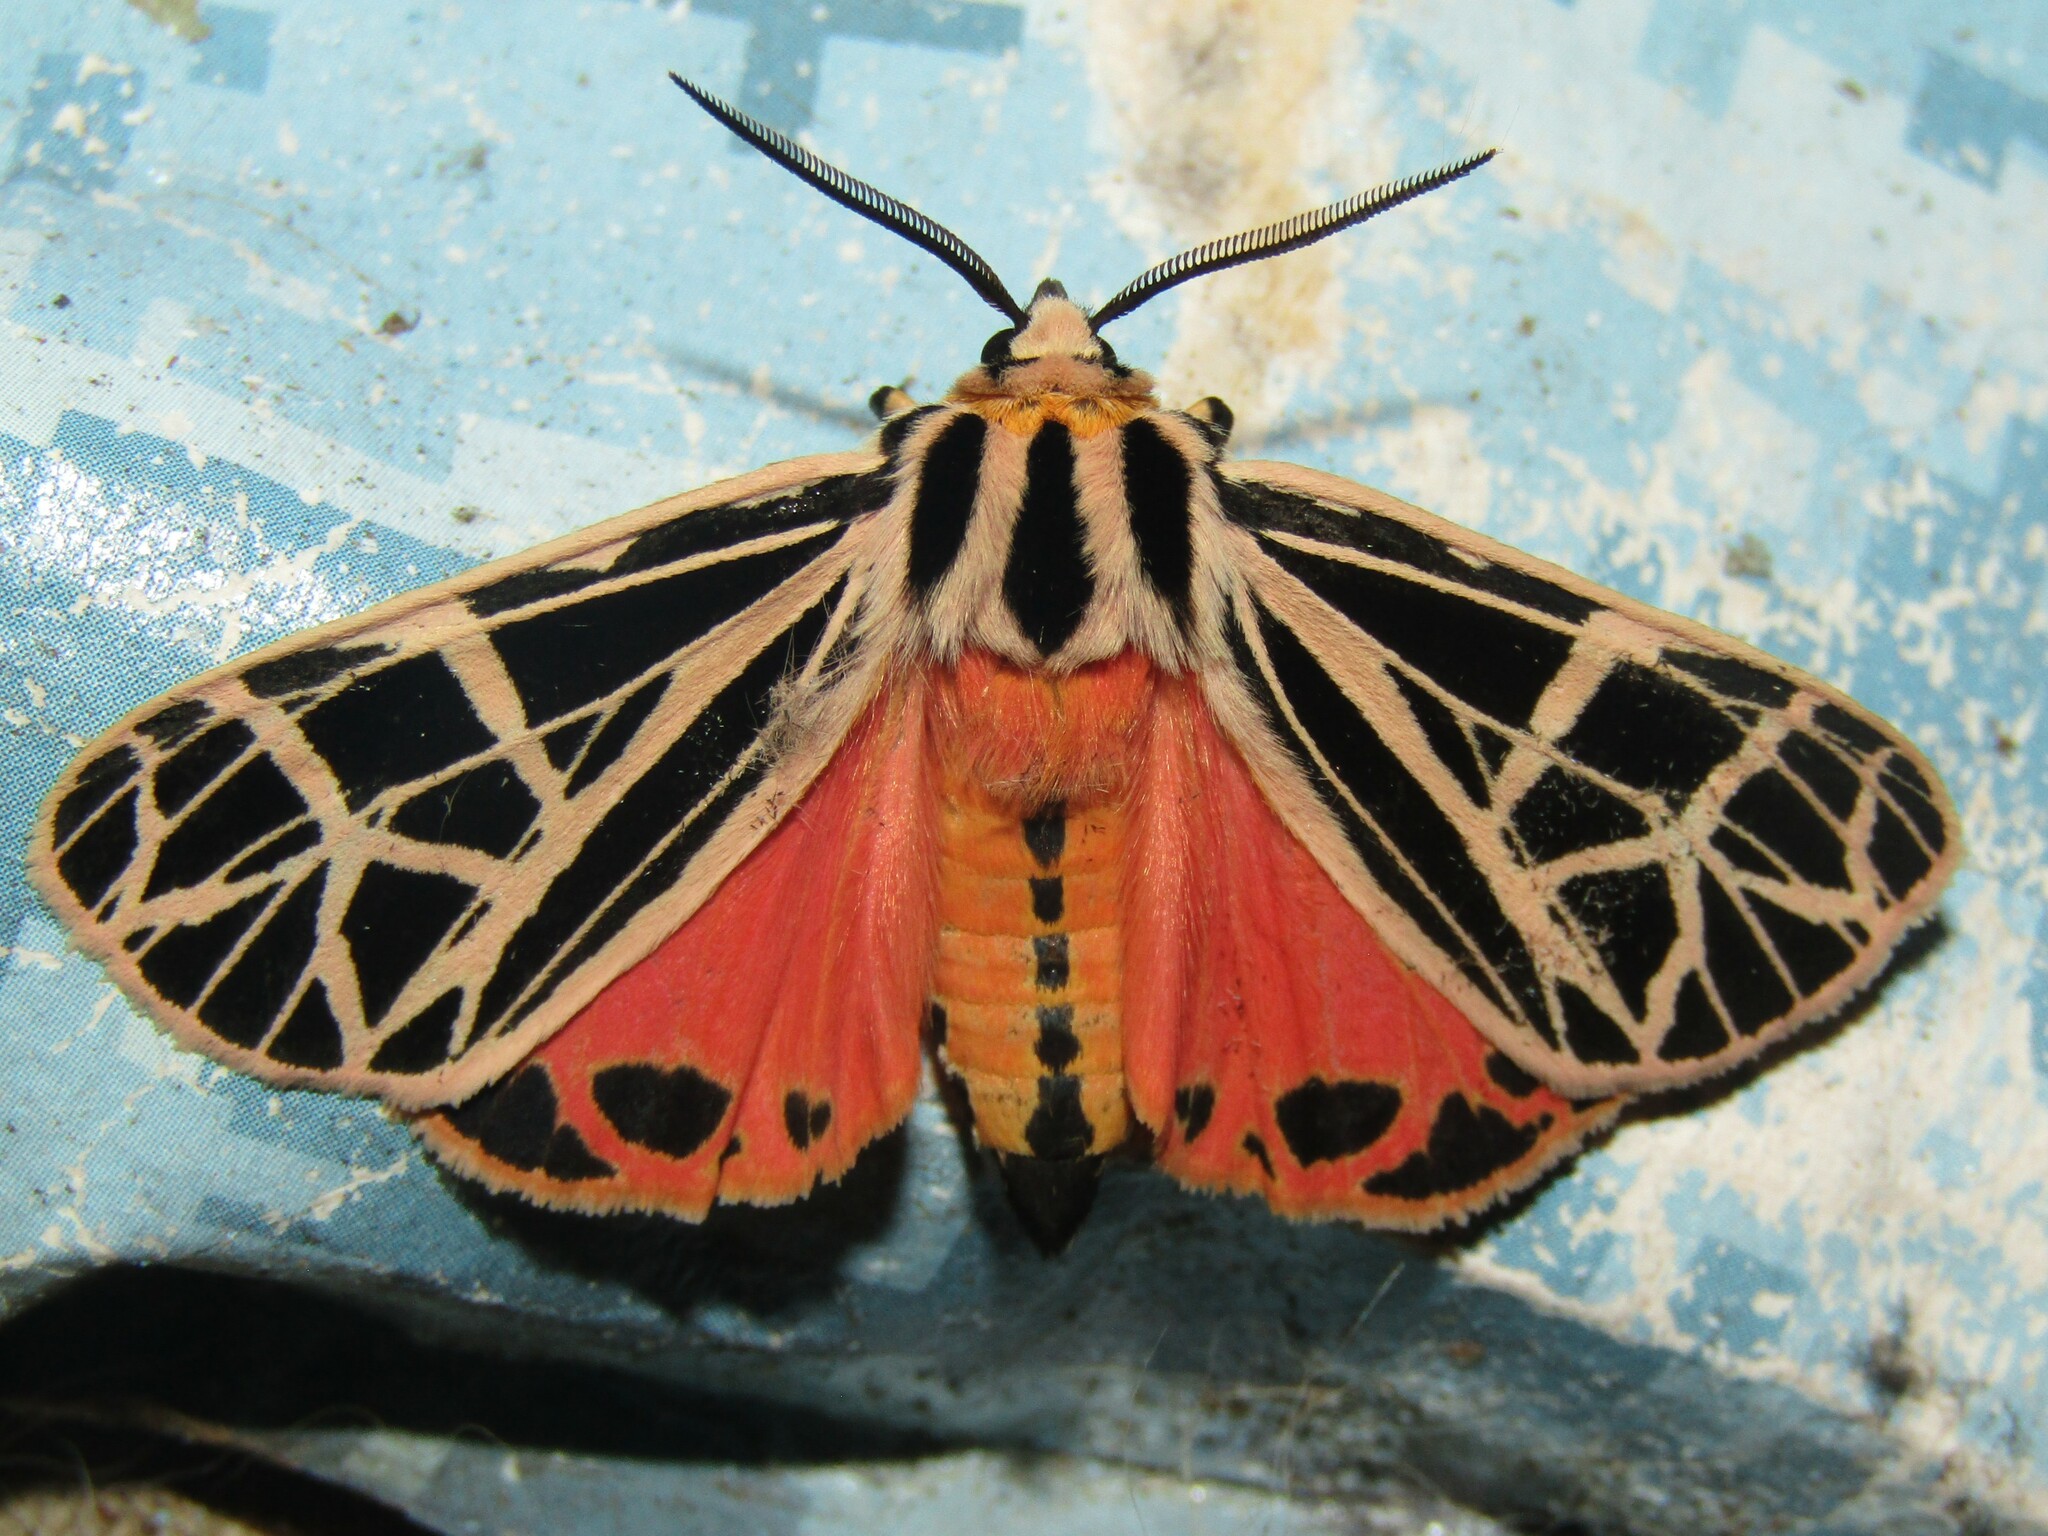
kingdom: Animalia
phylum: Arthropoda
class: Insecta
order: Lepidoptera
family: Erebidae
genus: Grammia
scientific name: Grammia parthenice
